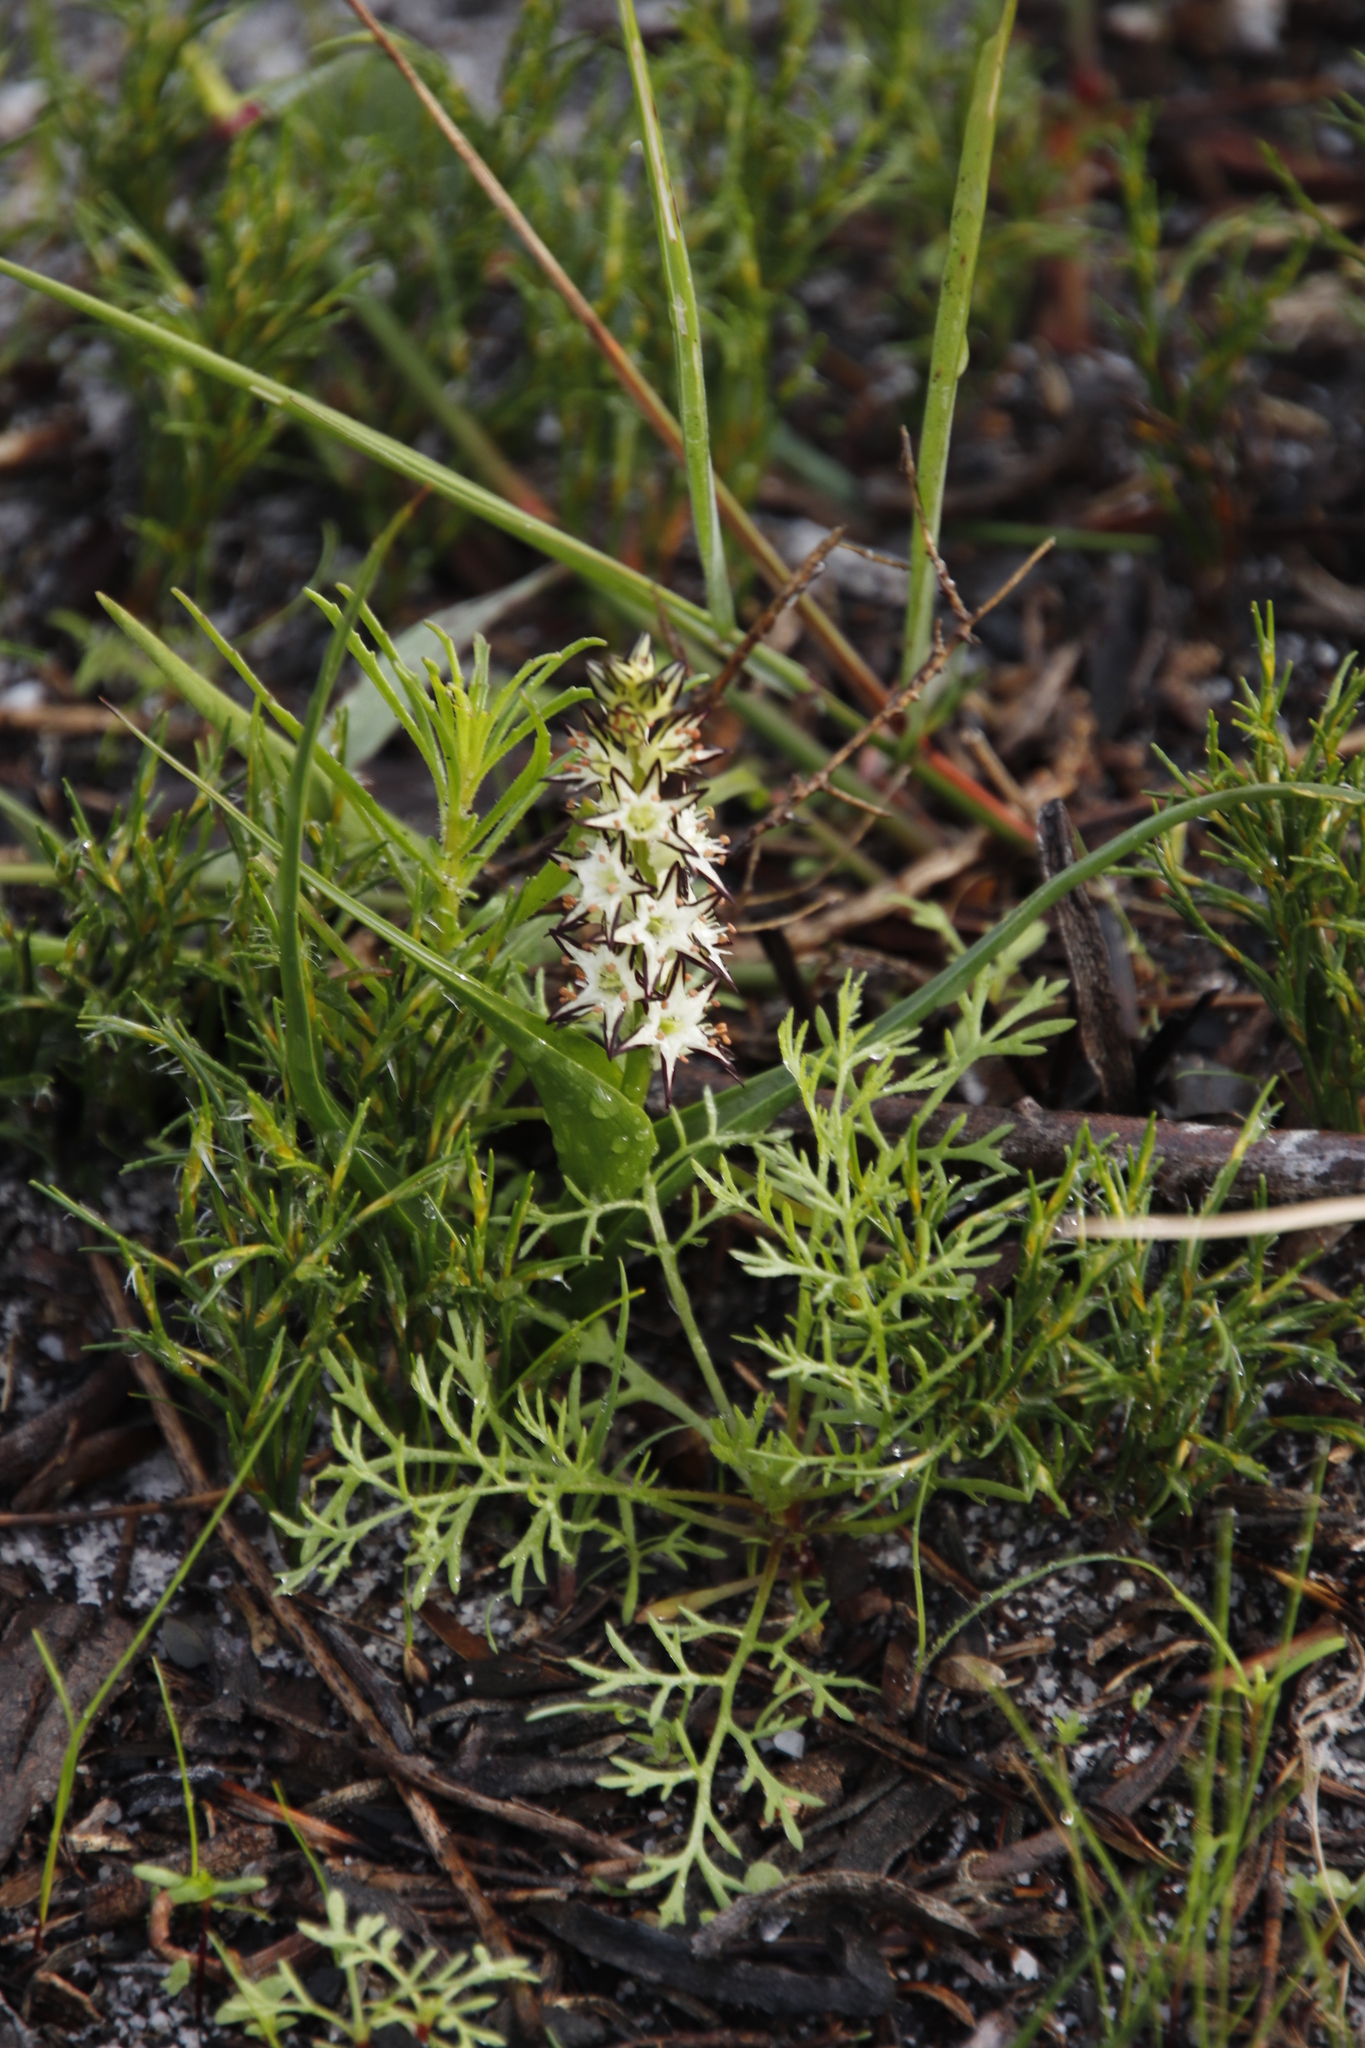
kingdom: Plantae
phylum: Tracheophyta
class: Liliopsida
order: Liliales
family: Colchicaceae
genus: Wurmbea
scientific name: Wurmbea hiemalis
